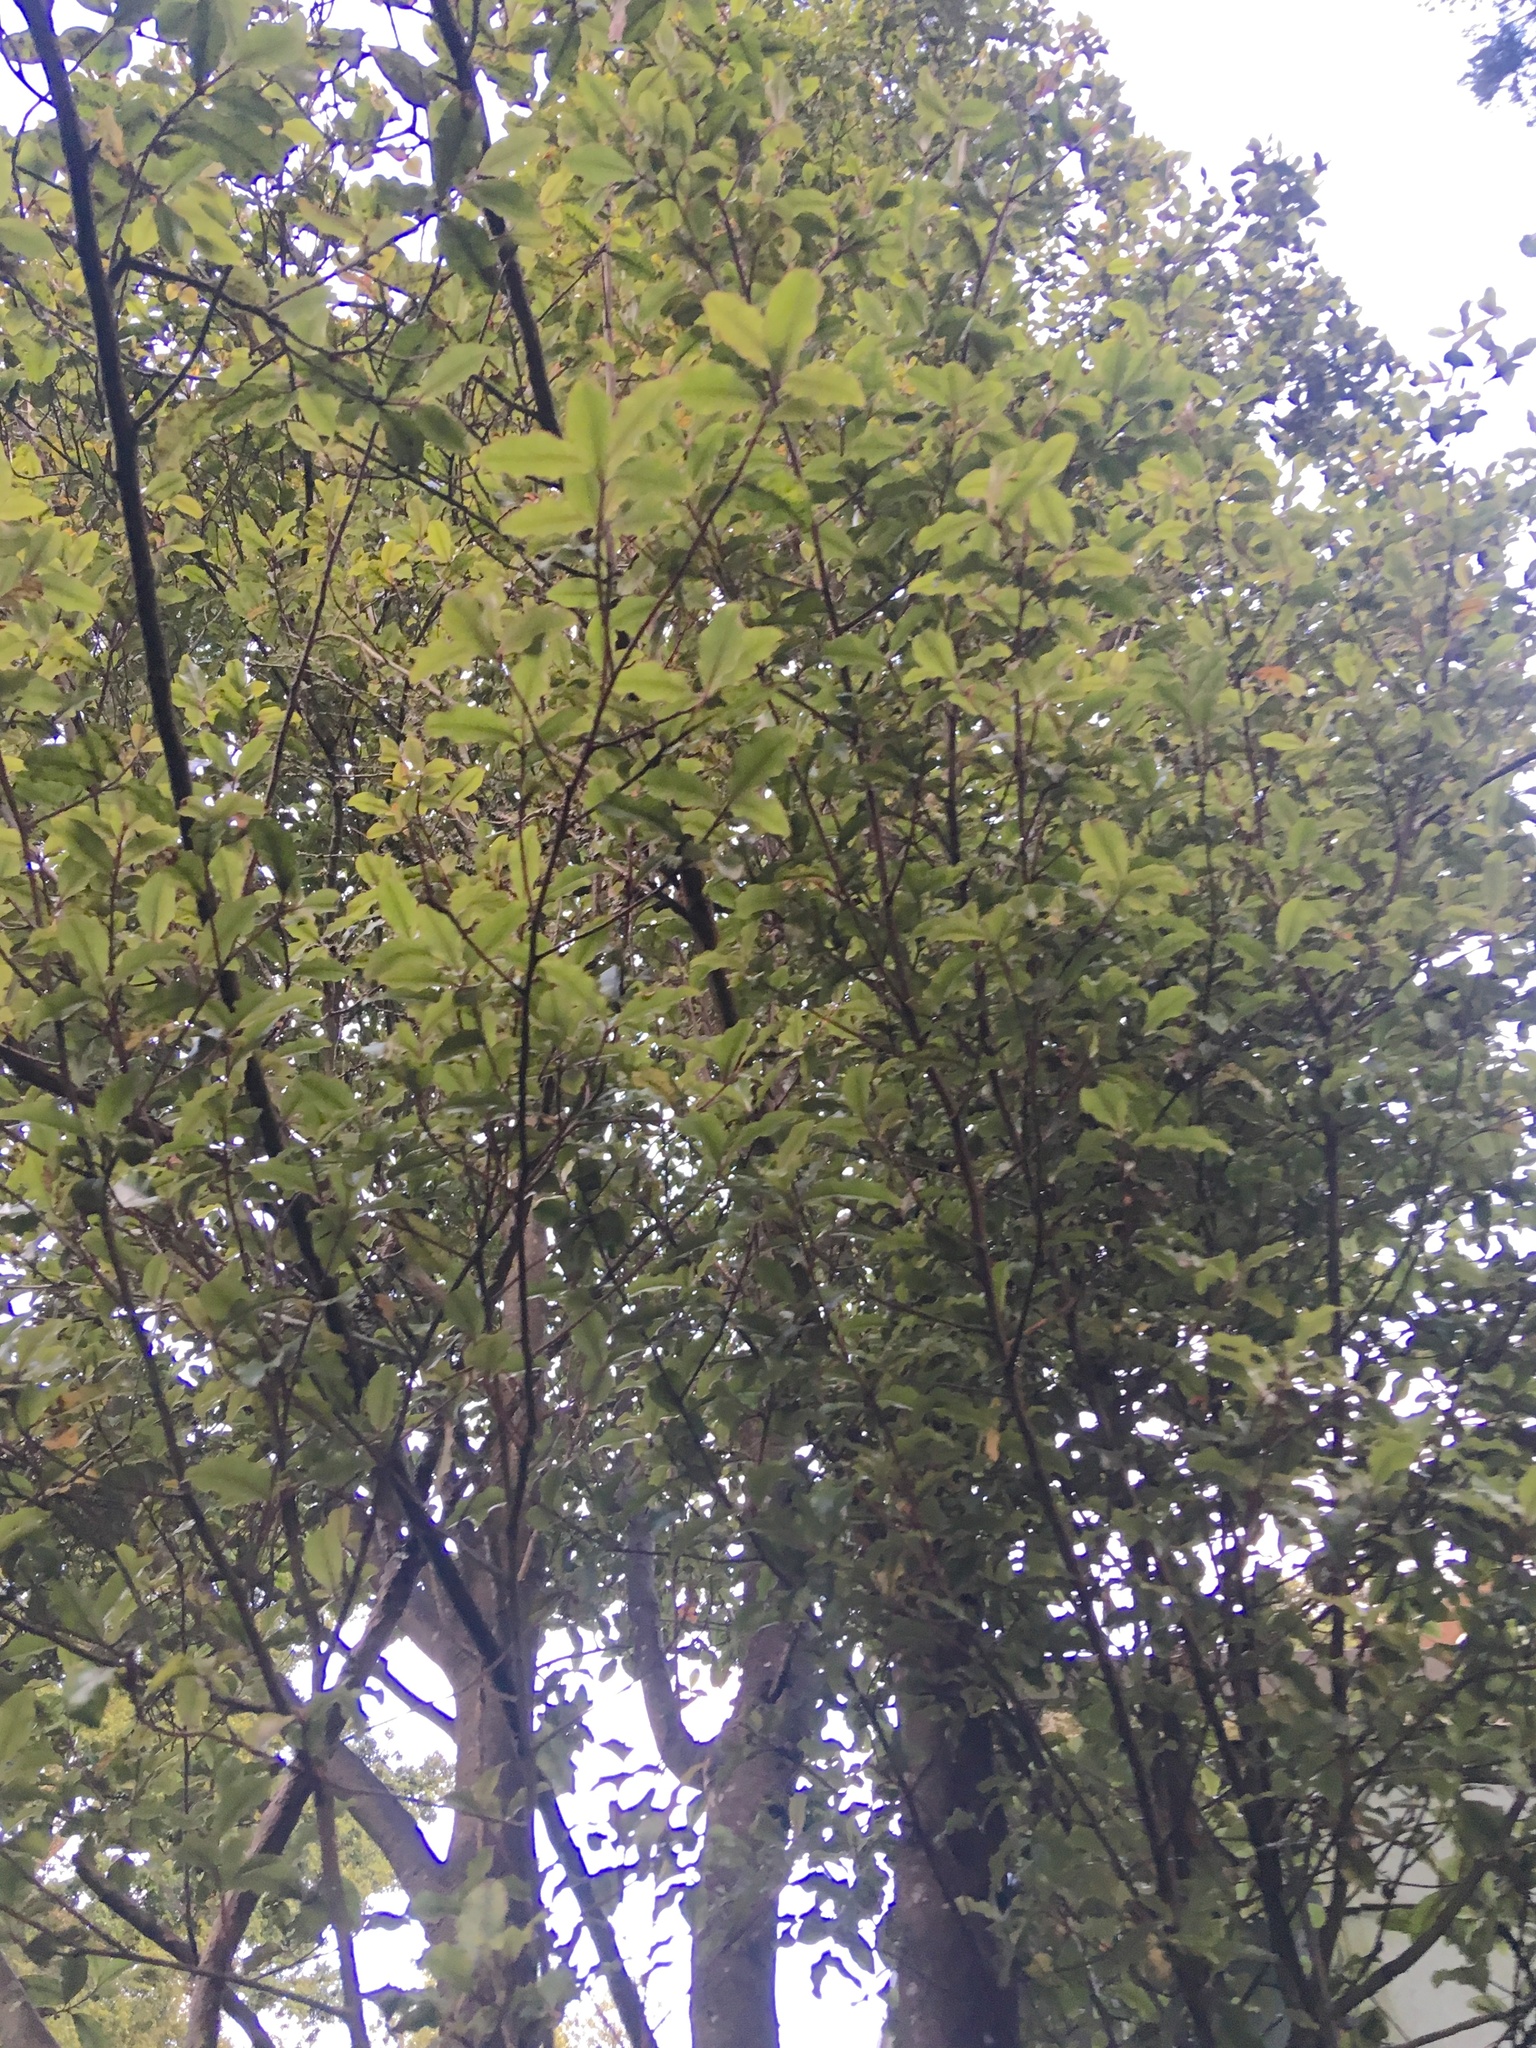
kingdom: Plantae
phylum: Tracheophyta
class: Magnoliopsida
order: Ericales
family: Primulaceae
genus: Myrsine
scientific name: Myrsine australis
